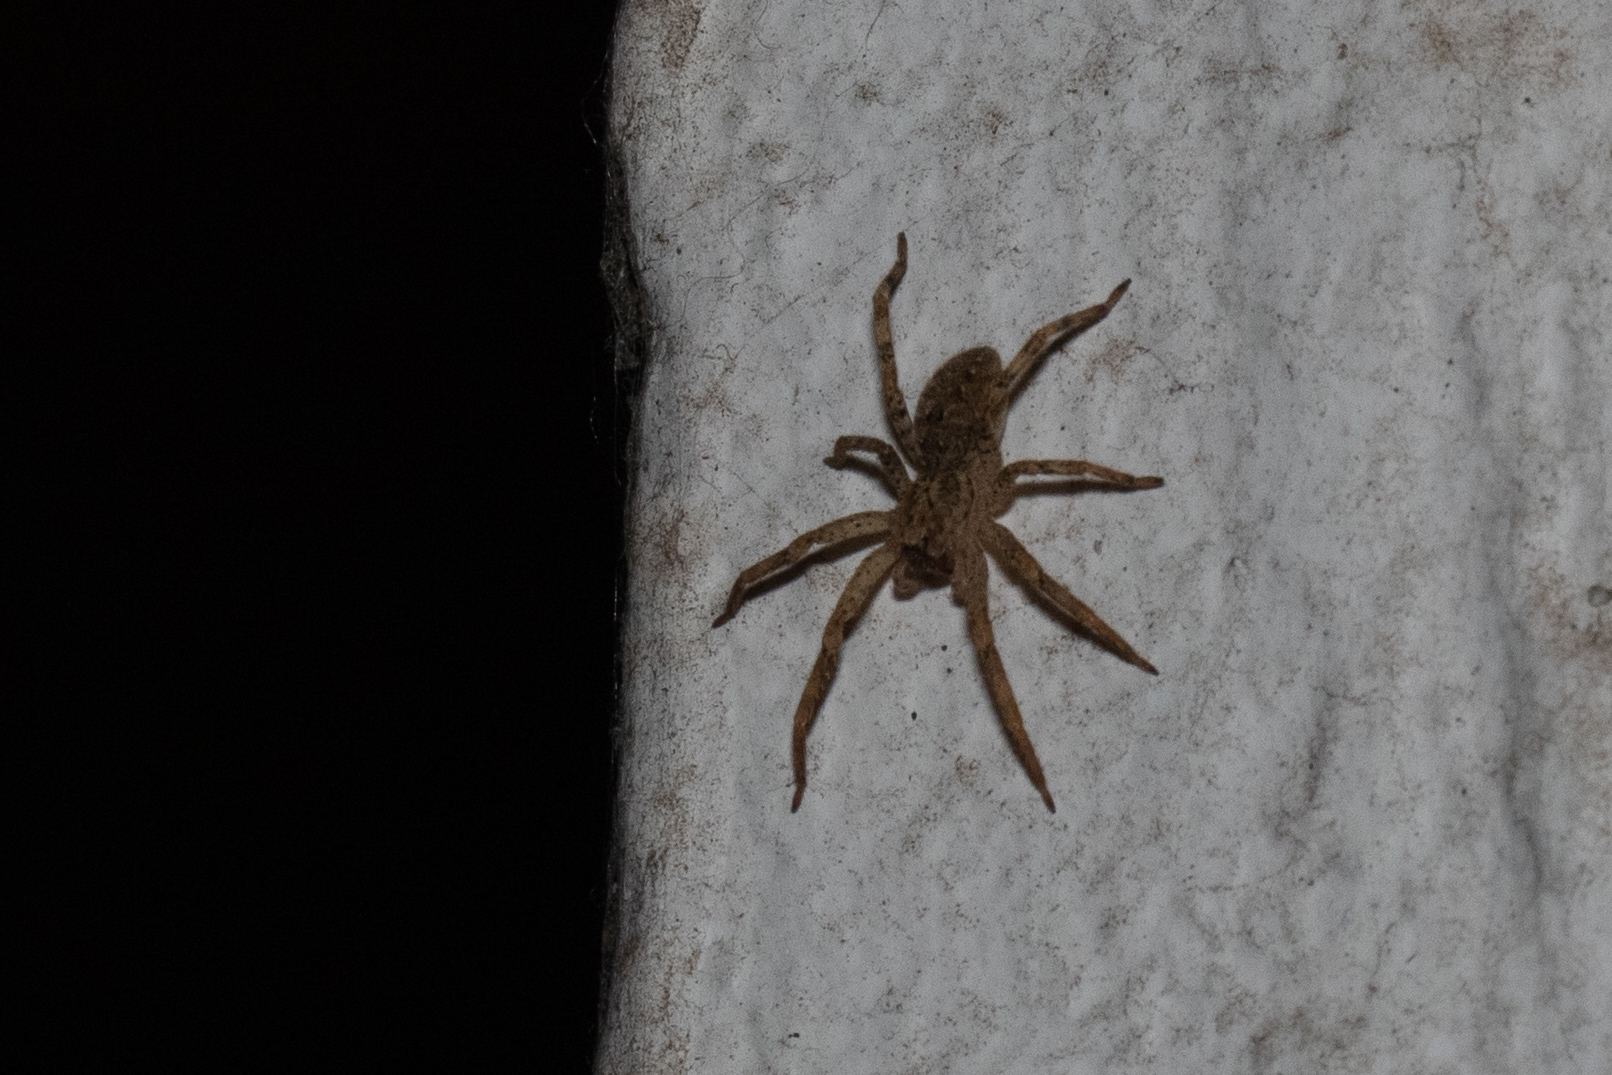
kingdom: Animalia
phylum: Arthropoda
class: Arachnida
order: Araneae
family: Zoropsidae
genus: Zoropsis
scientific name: Zoropsis spinimana
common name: Zoropsid spider
